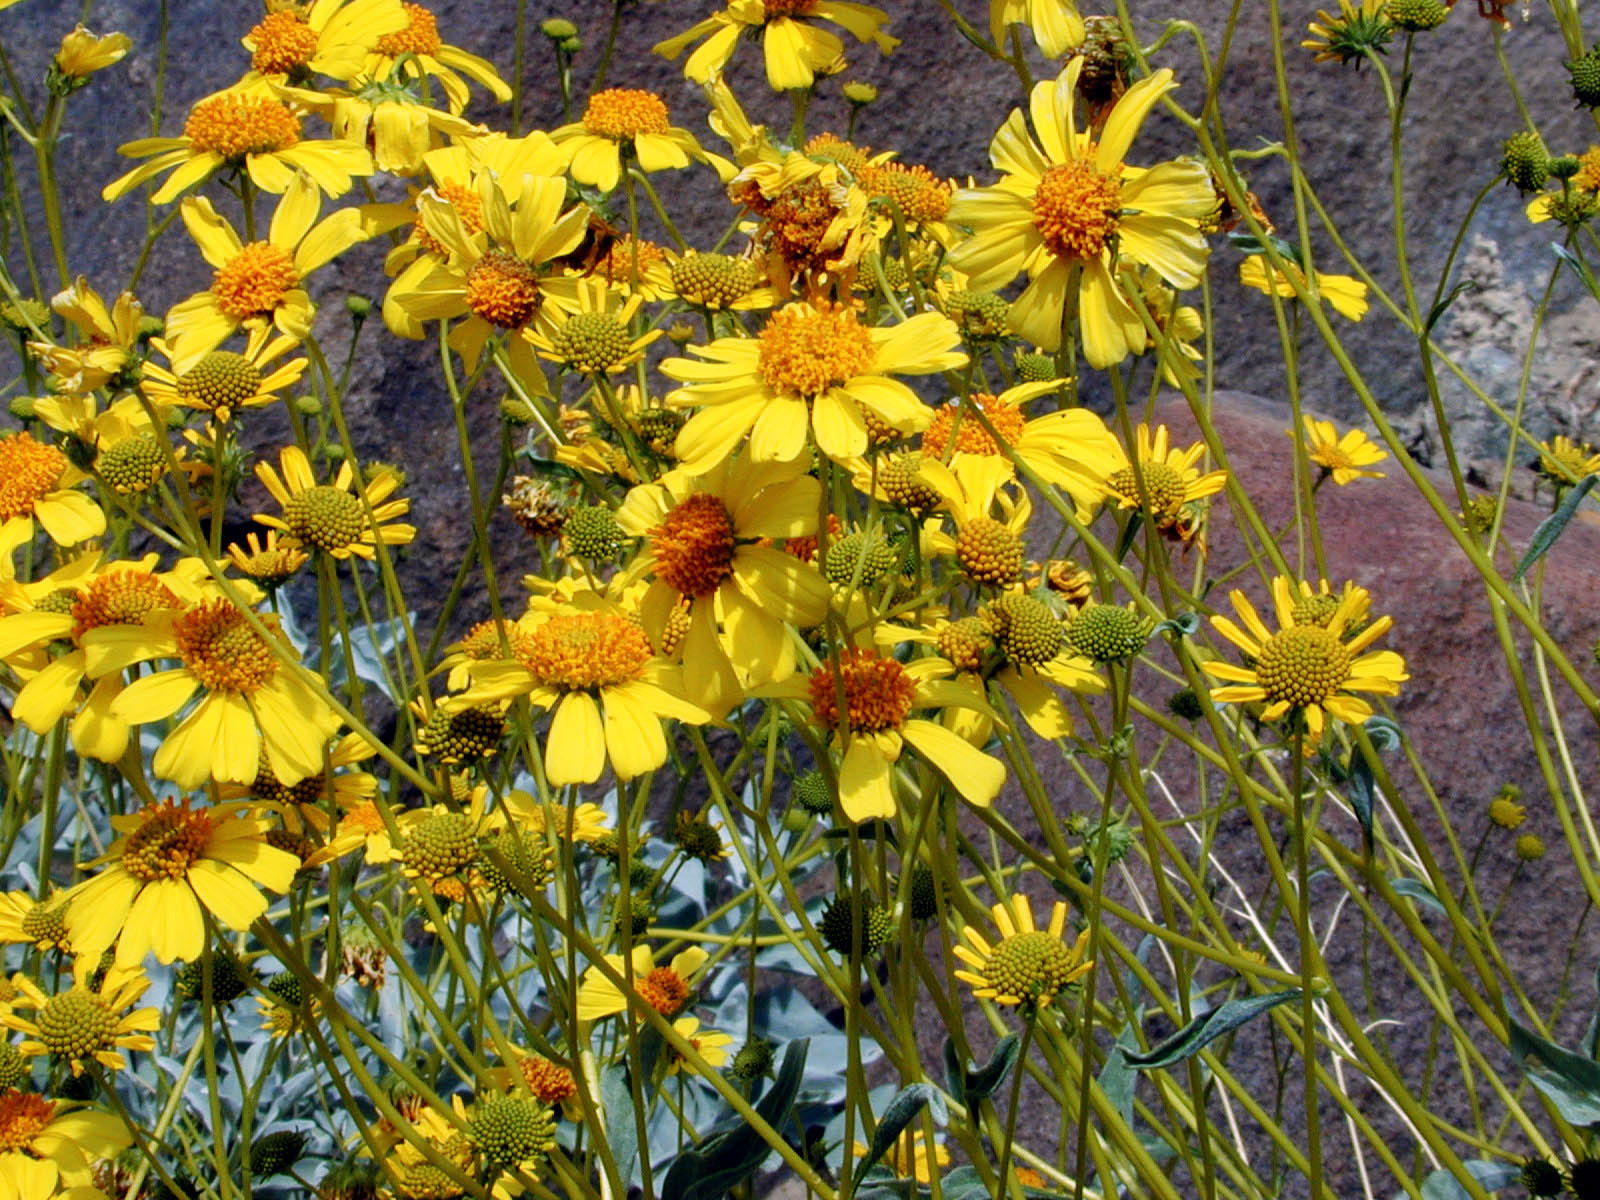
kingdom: Plantae
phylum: Tracheophyta
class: Magnoliopsida
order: Asterales
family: Asteraceae
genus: Encelia
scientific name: Encelia farinosa
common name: Brittlebush
